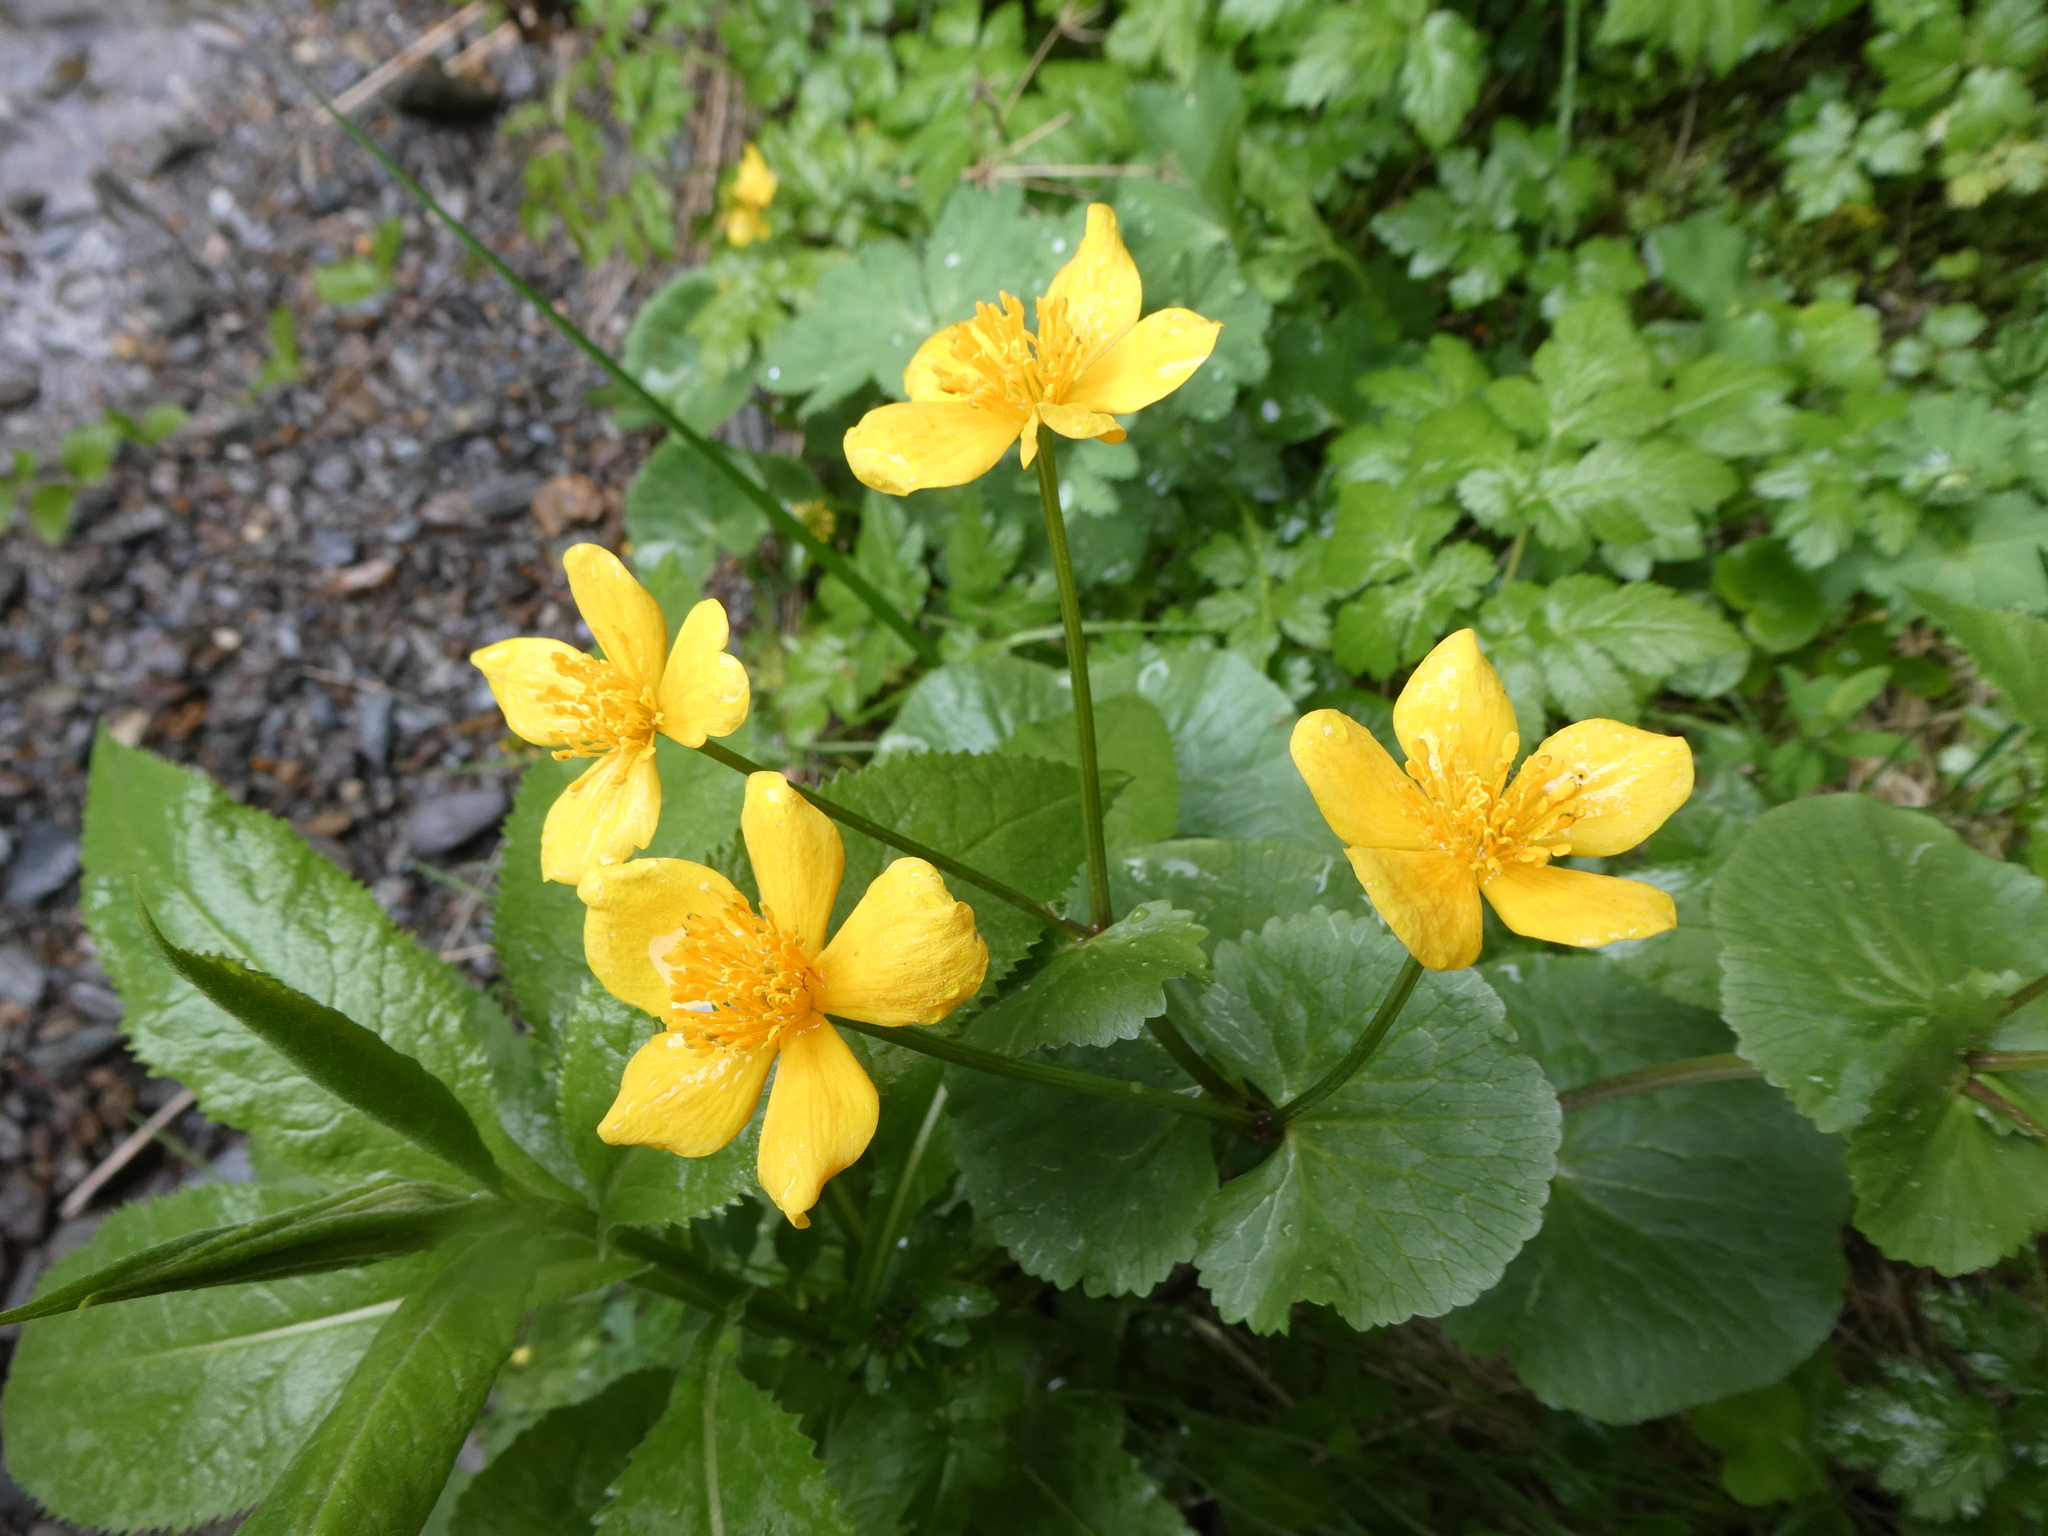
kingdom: Plantae
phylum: Tracheophyta
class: Magnoliopsida
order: Ranunculales
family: Ranunculaceae
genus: Caltha
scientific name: Caltha palustris
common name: Marsh marigold
